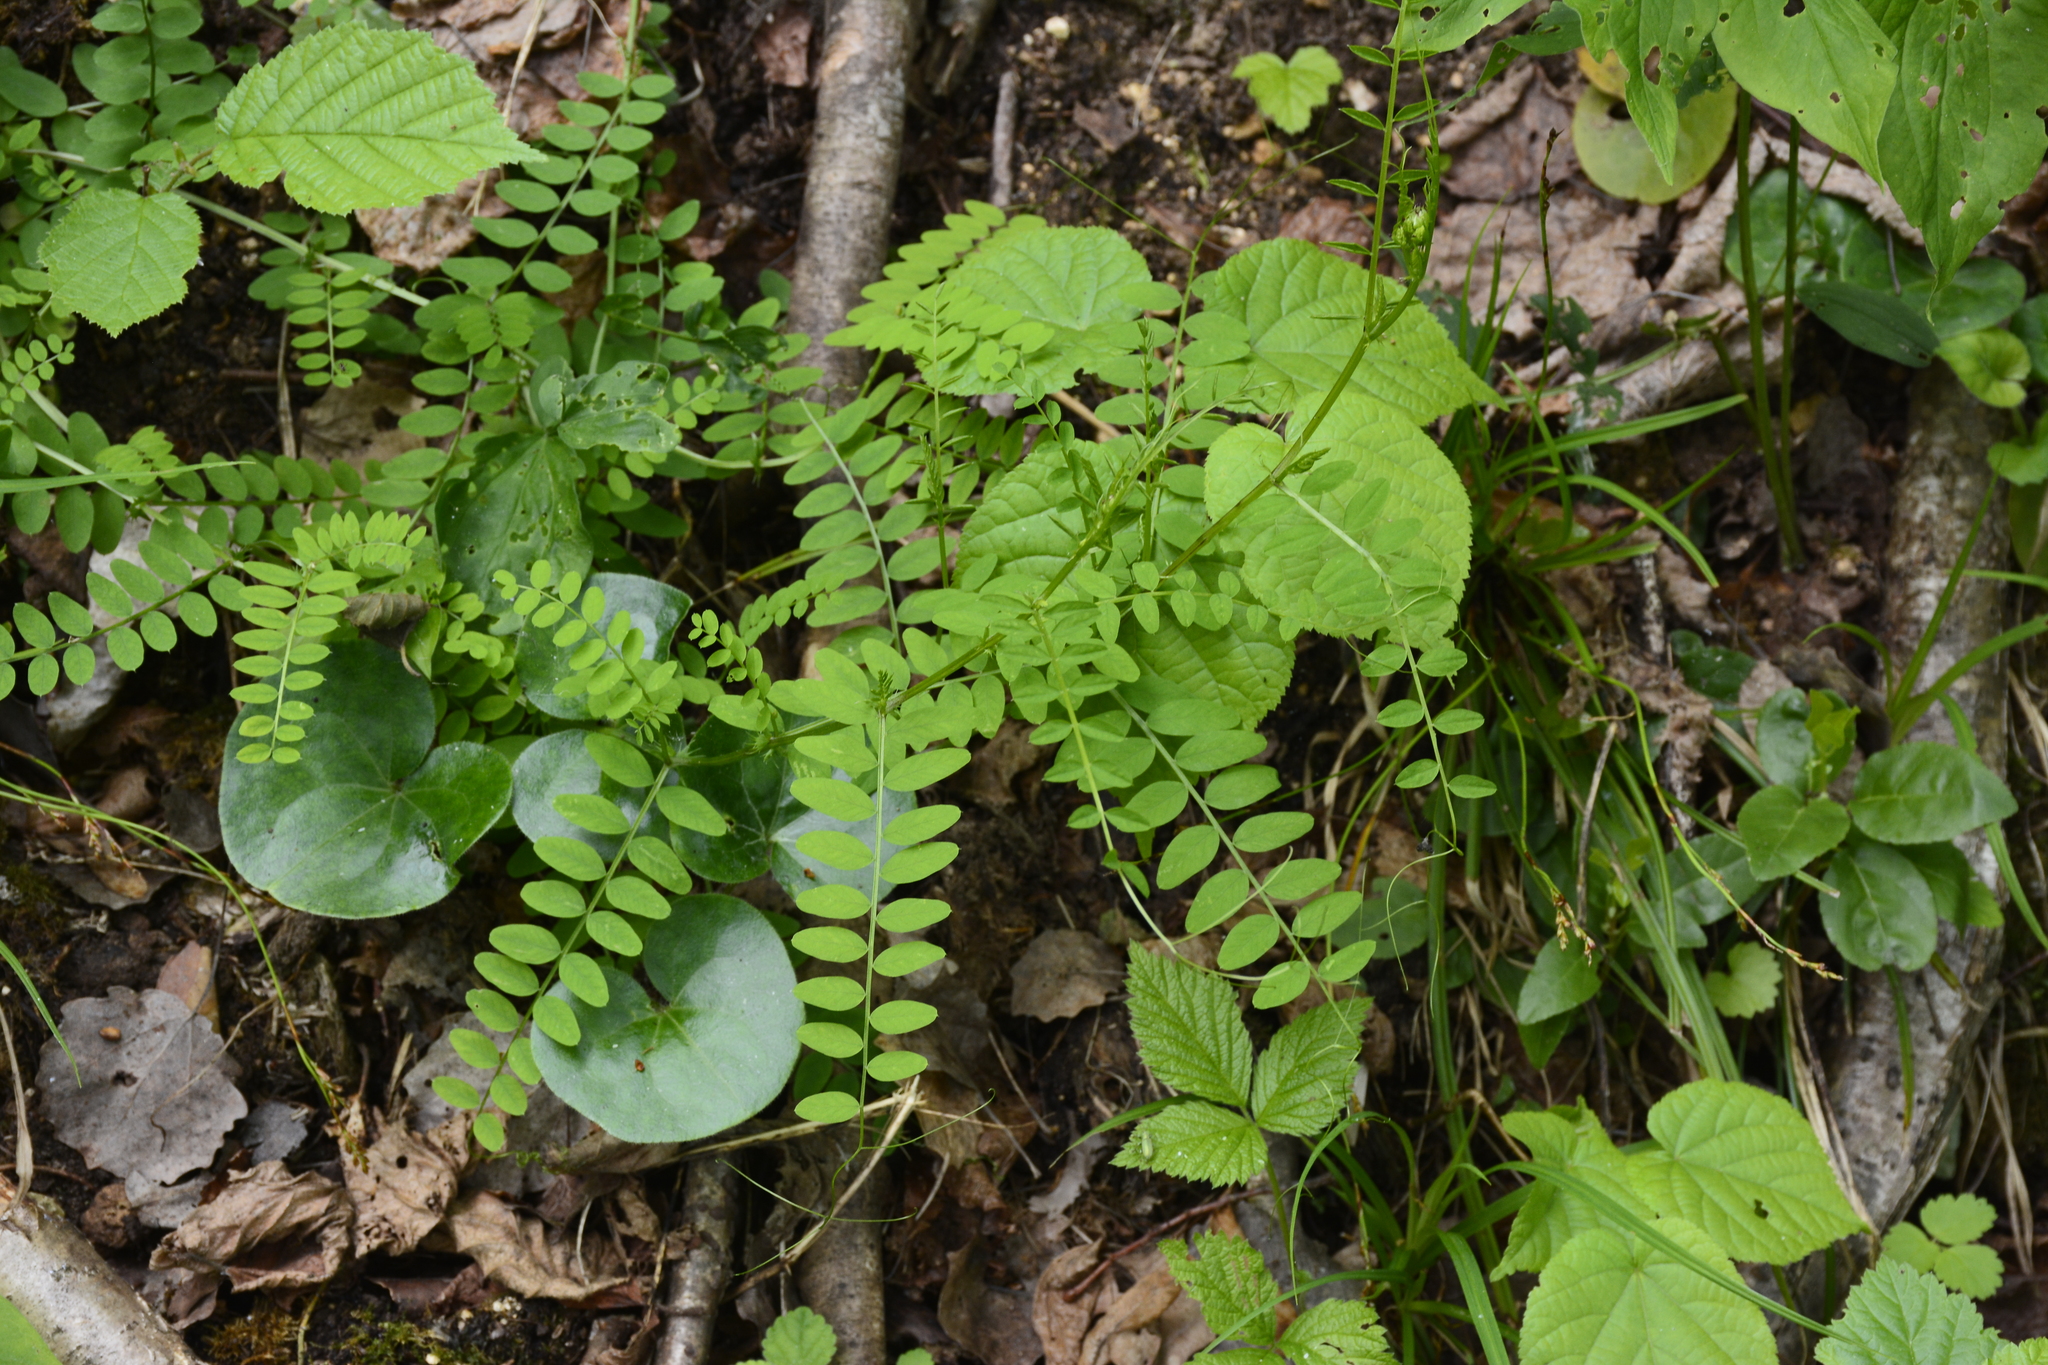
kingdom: Plantae
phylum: Tracheophyta
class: Magnoliopsida
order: Fabales
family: Fabaceae
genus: Vicia
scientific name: Vicia sylvatica
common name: Wood vetch
